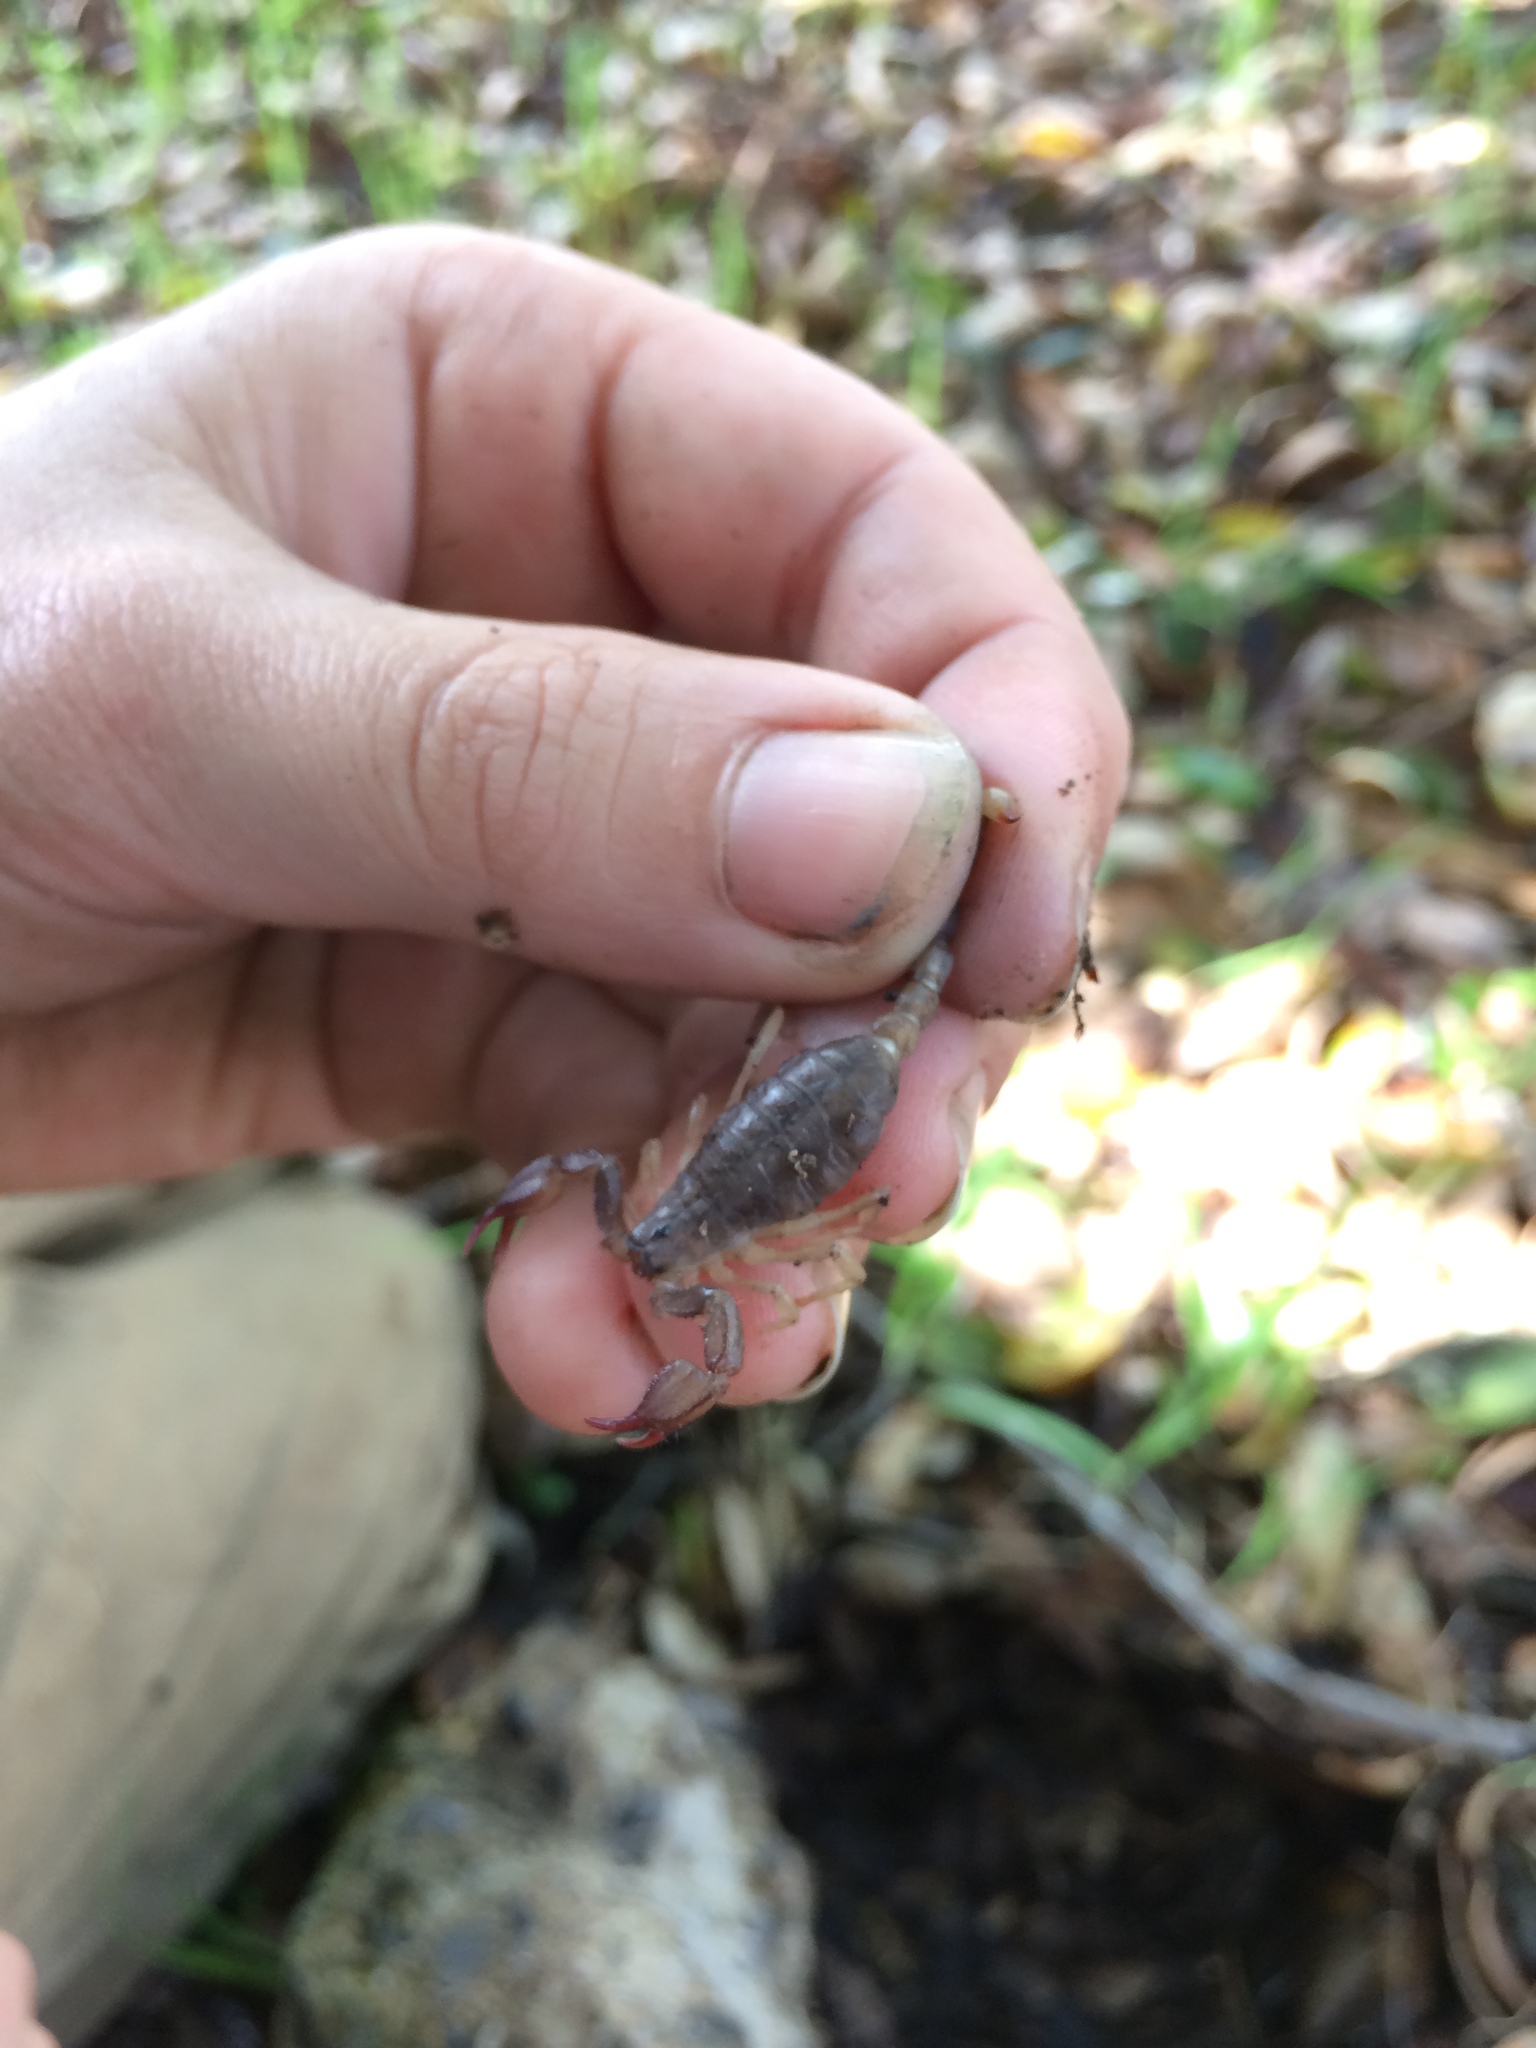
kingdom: Animalia
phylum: Arthropoda
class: Arachnida
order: Scorpiones
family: Chactidae
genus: Uroctonus
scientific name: Uroctonus mordax
